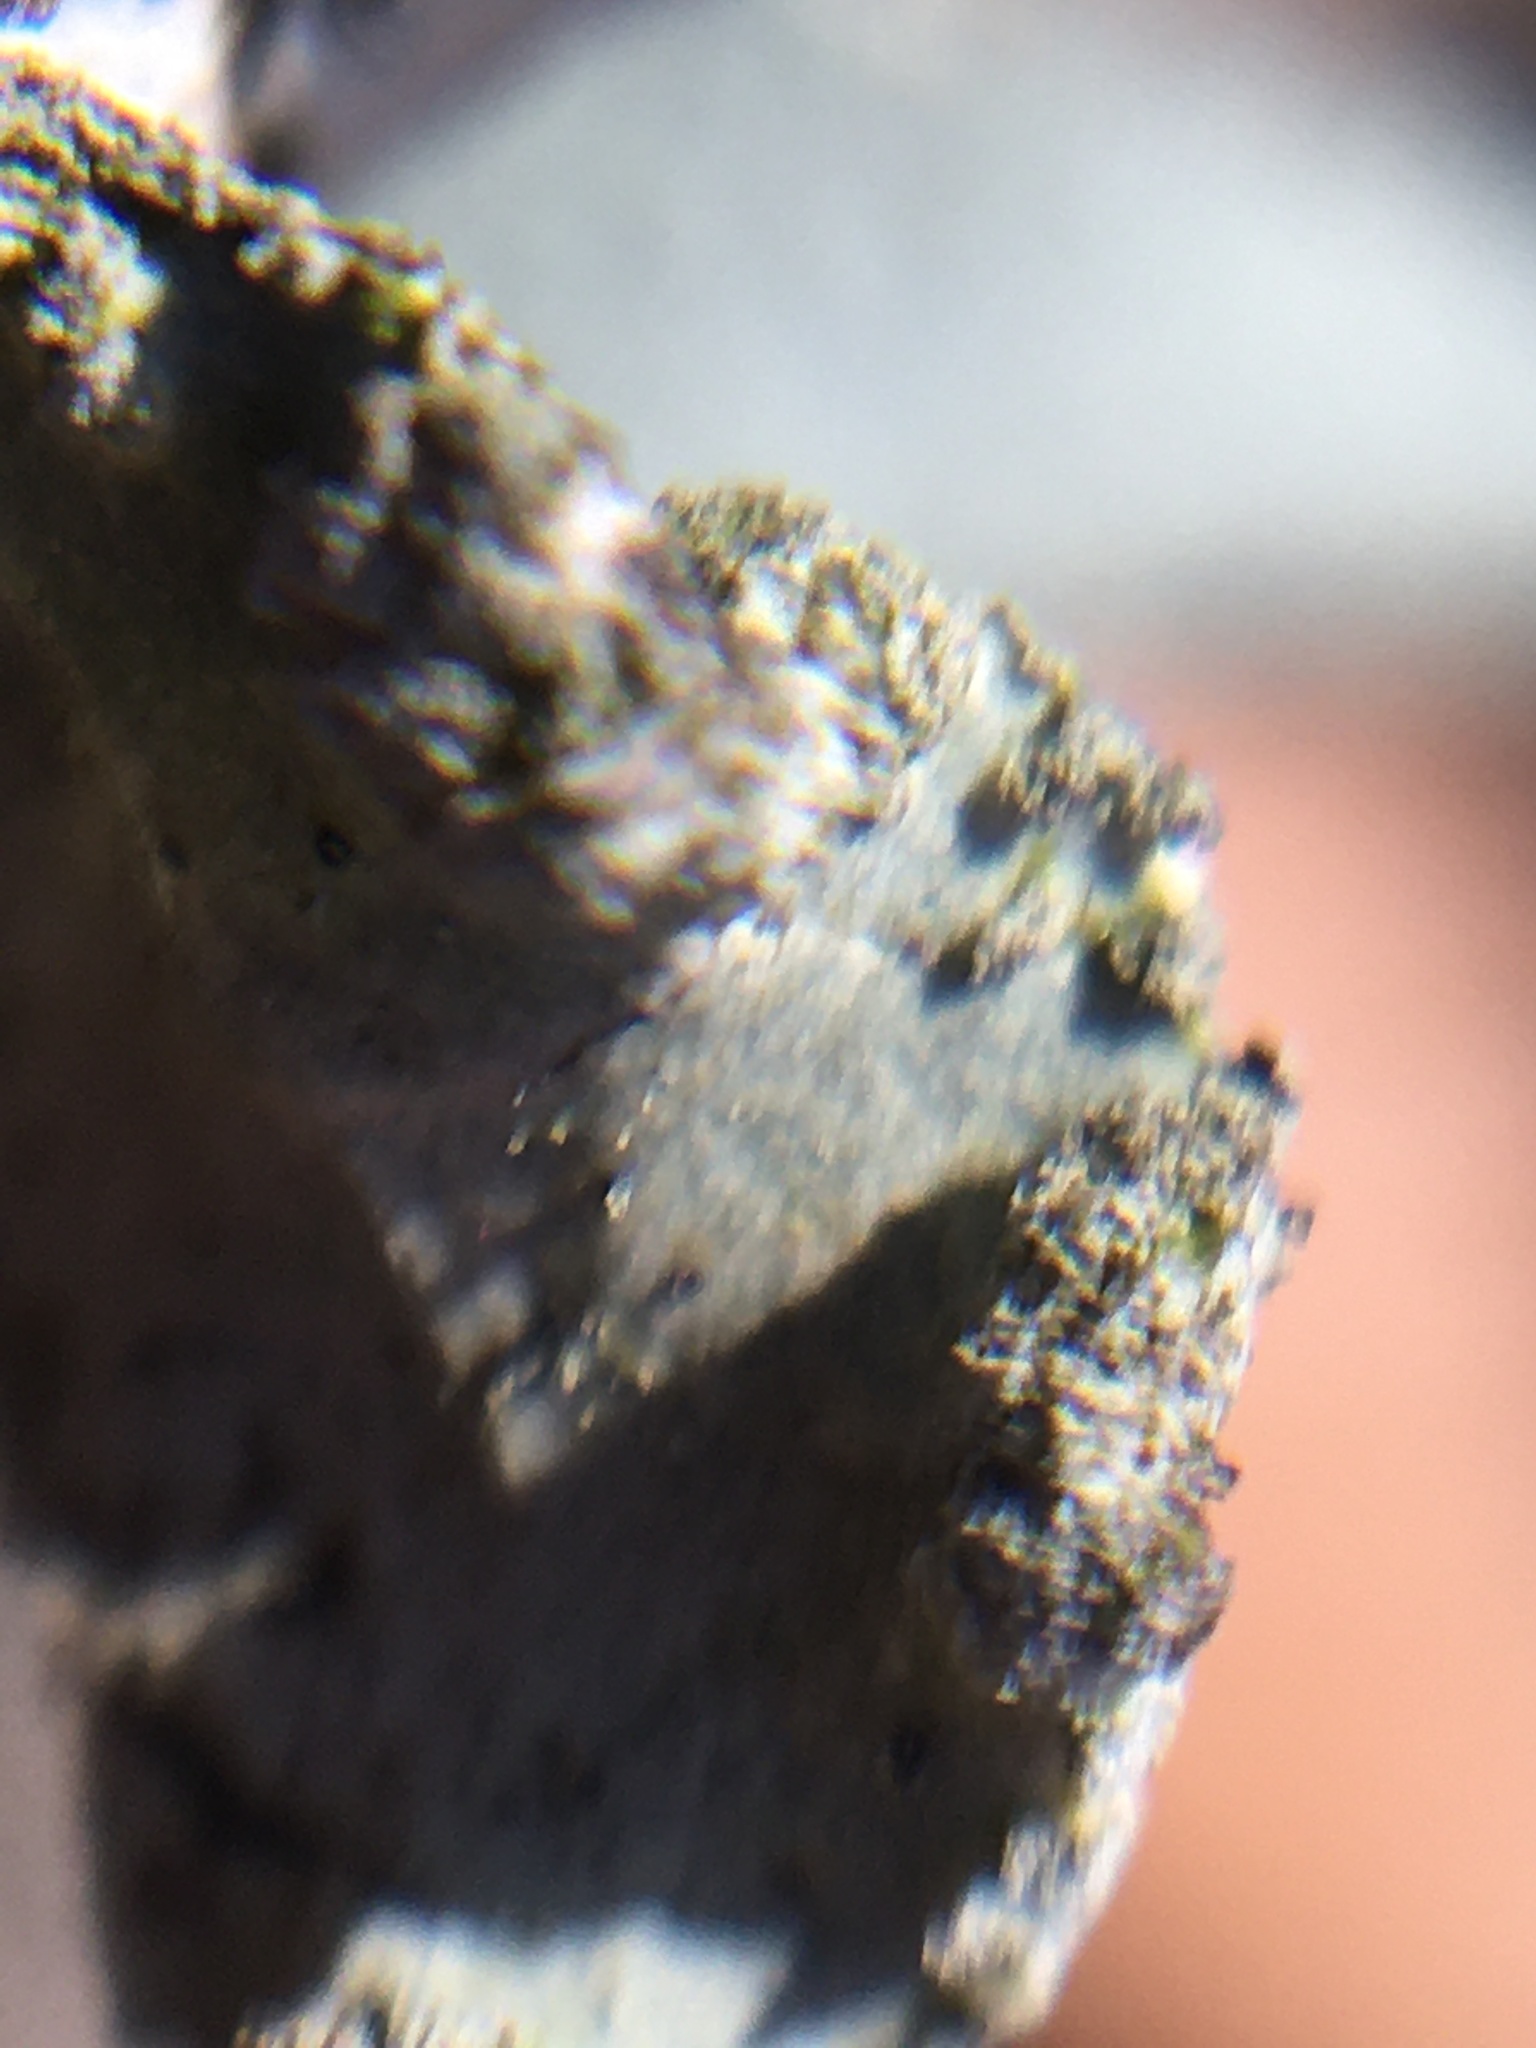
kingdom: Fungi
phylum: Ascomycota
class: Lecanoromycetes
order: Lecanorales
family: Parmeliaceae
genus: Parmotrema
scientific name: Parmotrema hypotropum
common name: Powdered ruffle lichen
